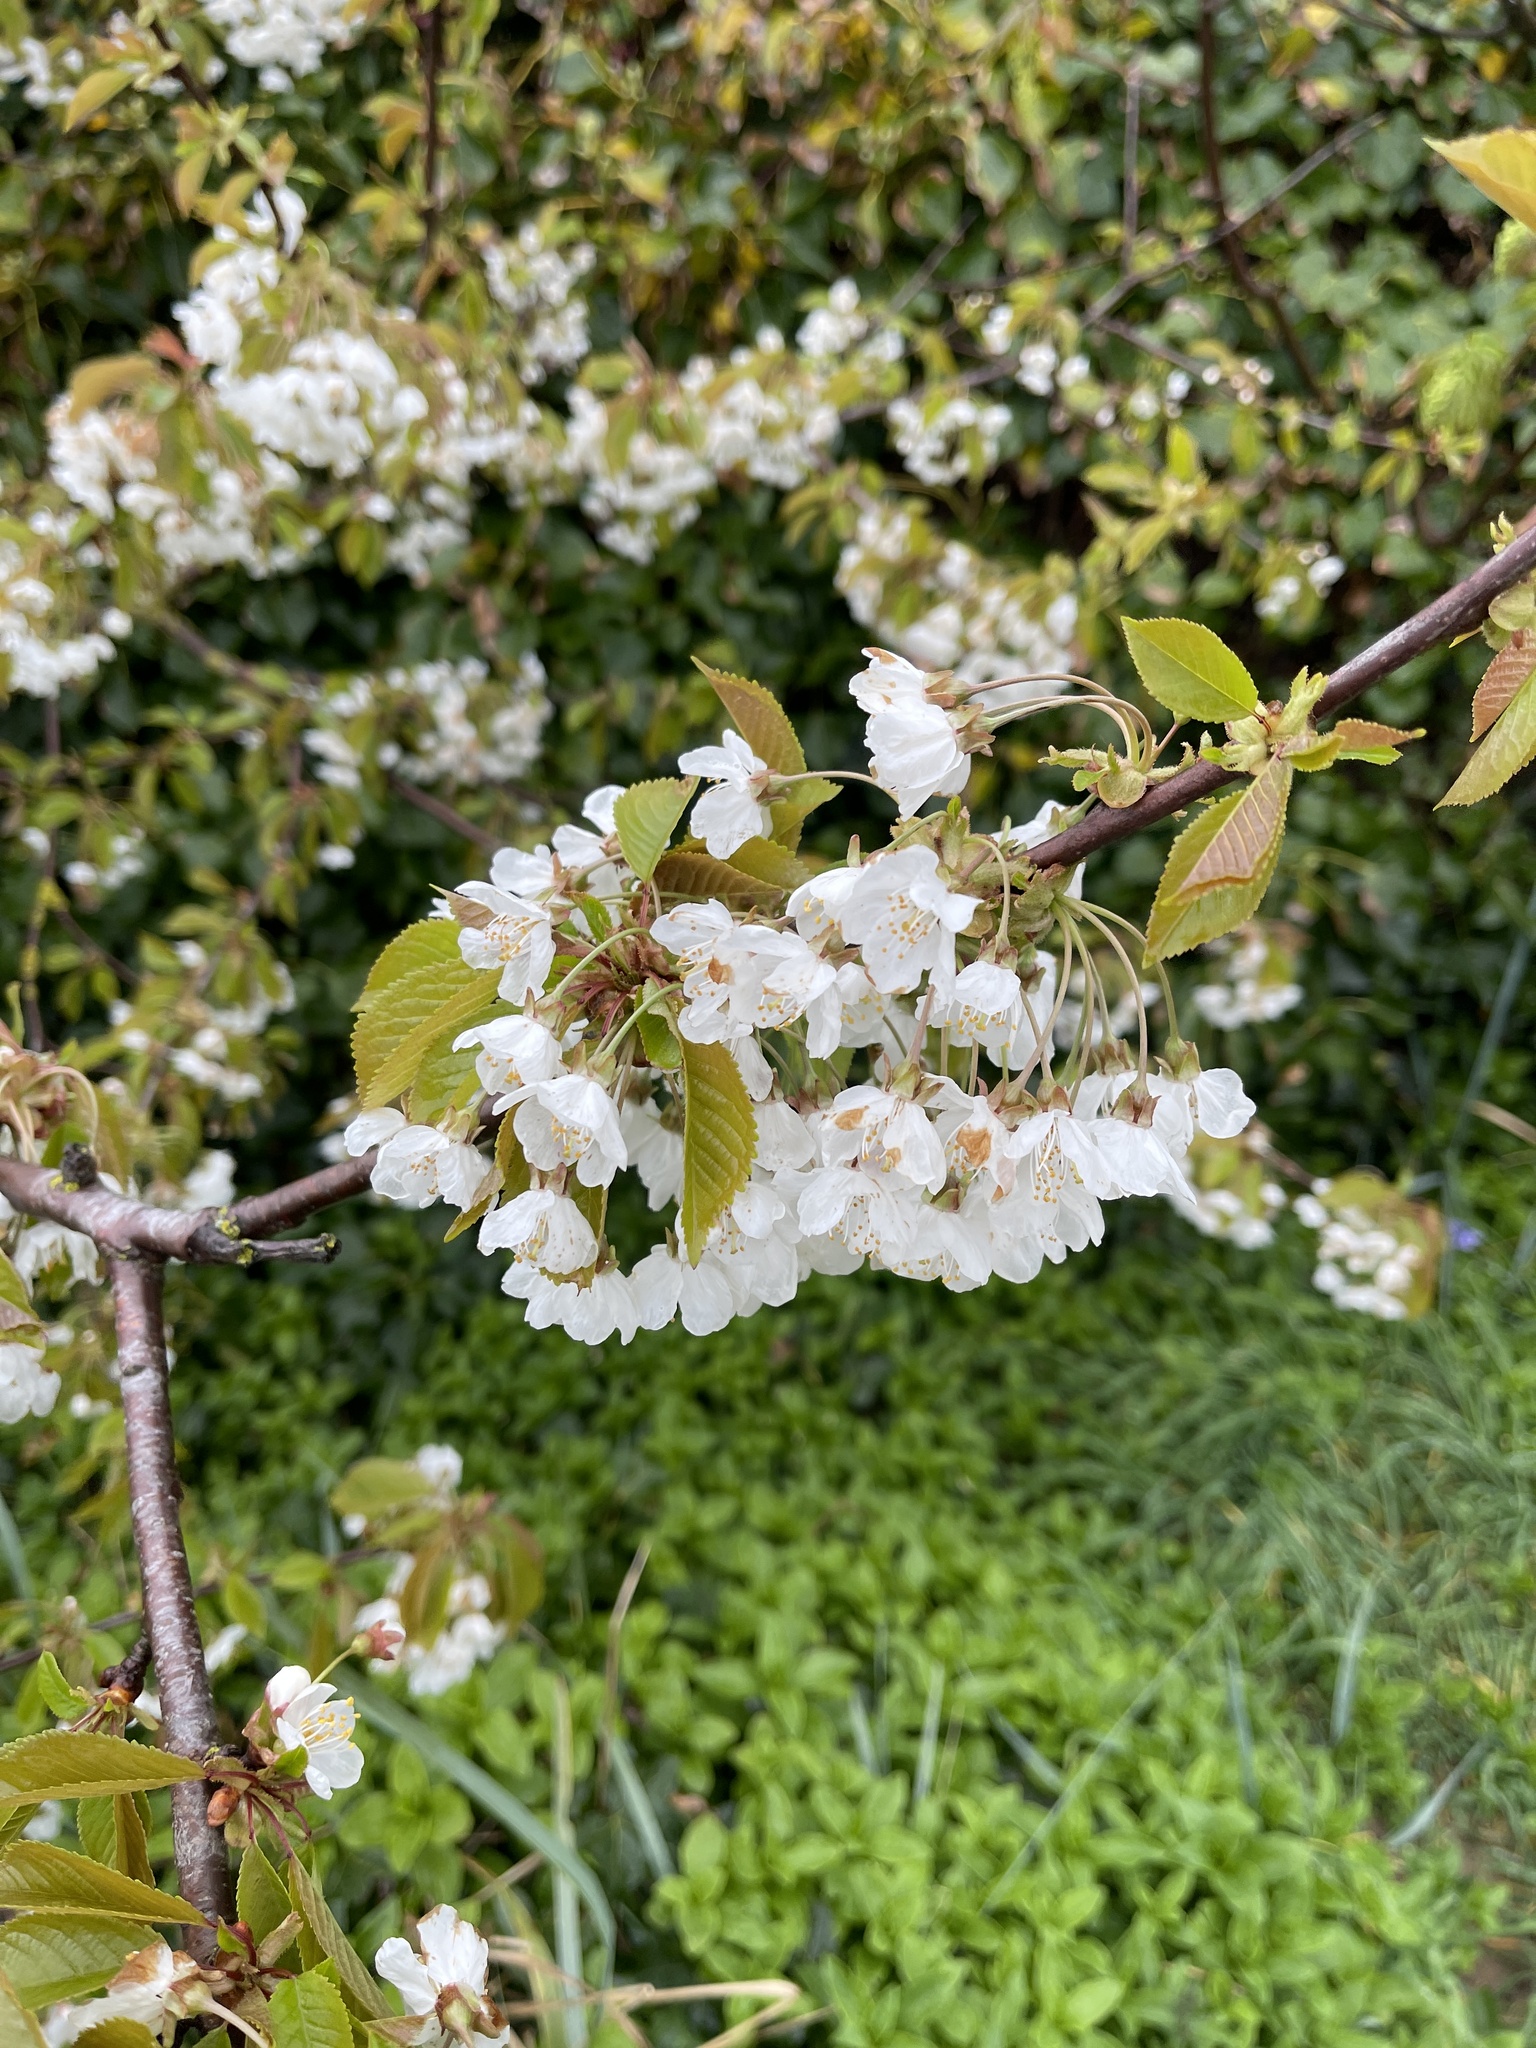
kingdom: Plantae
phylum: Tracheophyta
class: Magnoliopsida
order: Rosales
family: Rosaceae
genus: Prunus
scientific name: Prunus avium
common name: Sweet cherry
